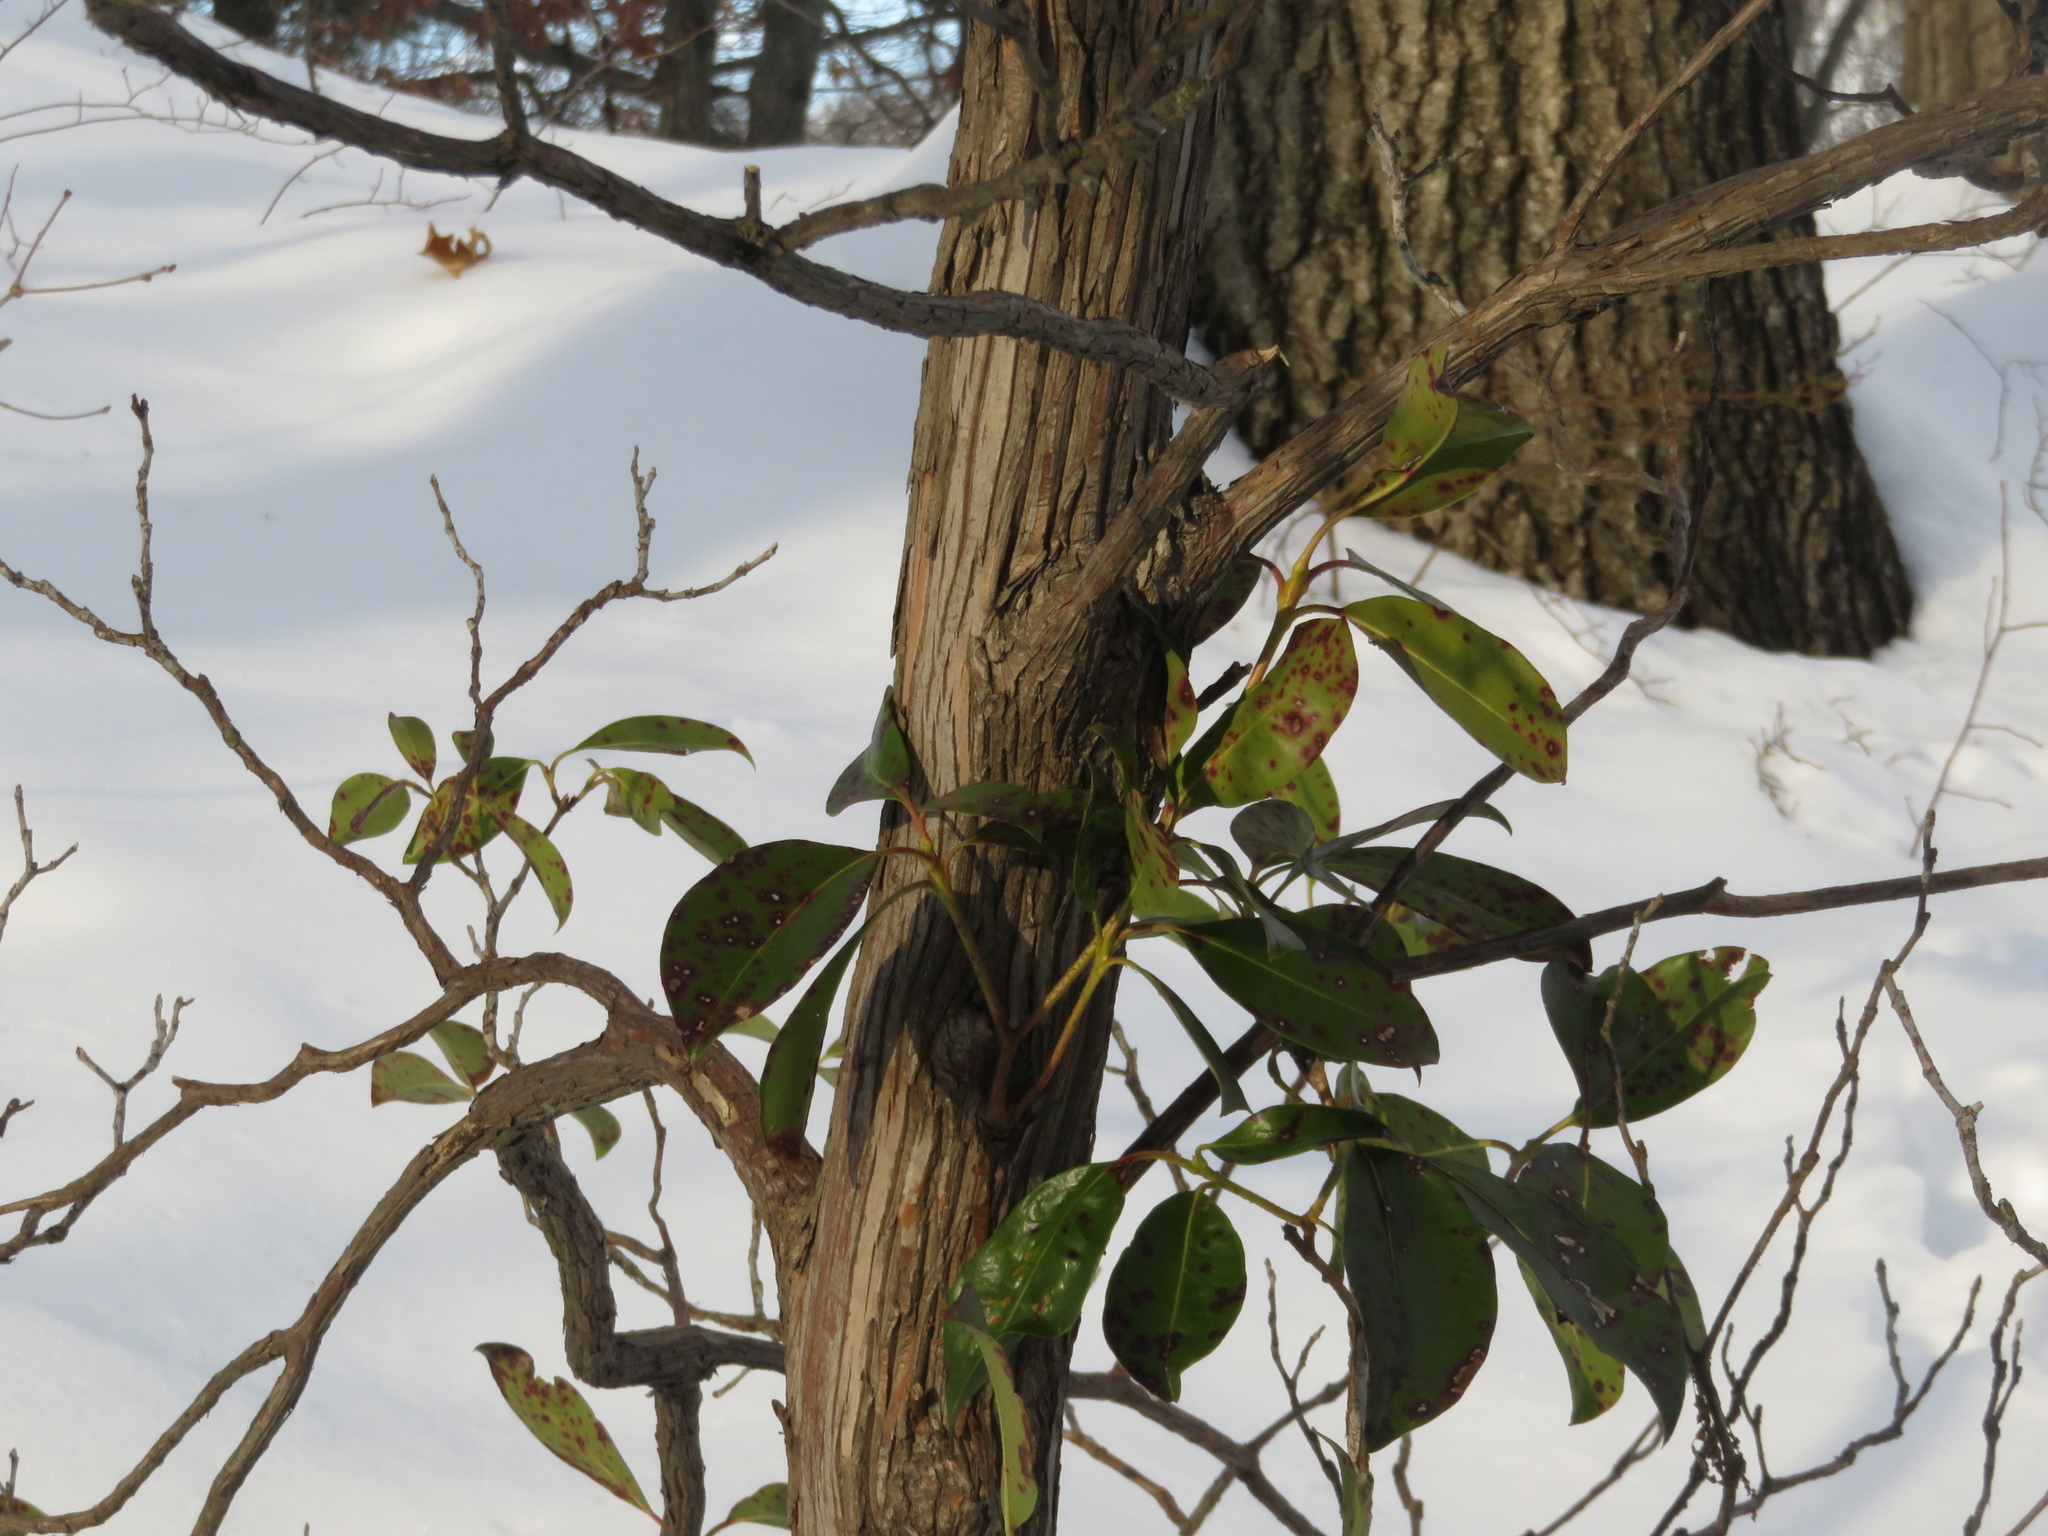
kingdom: Plantae
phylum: Tracheophyta
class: Magnoliopsida
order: Ericales
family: Ericaceae
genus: Kalmia
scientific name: Kalmia latifolia
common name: Mountain-laurel
